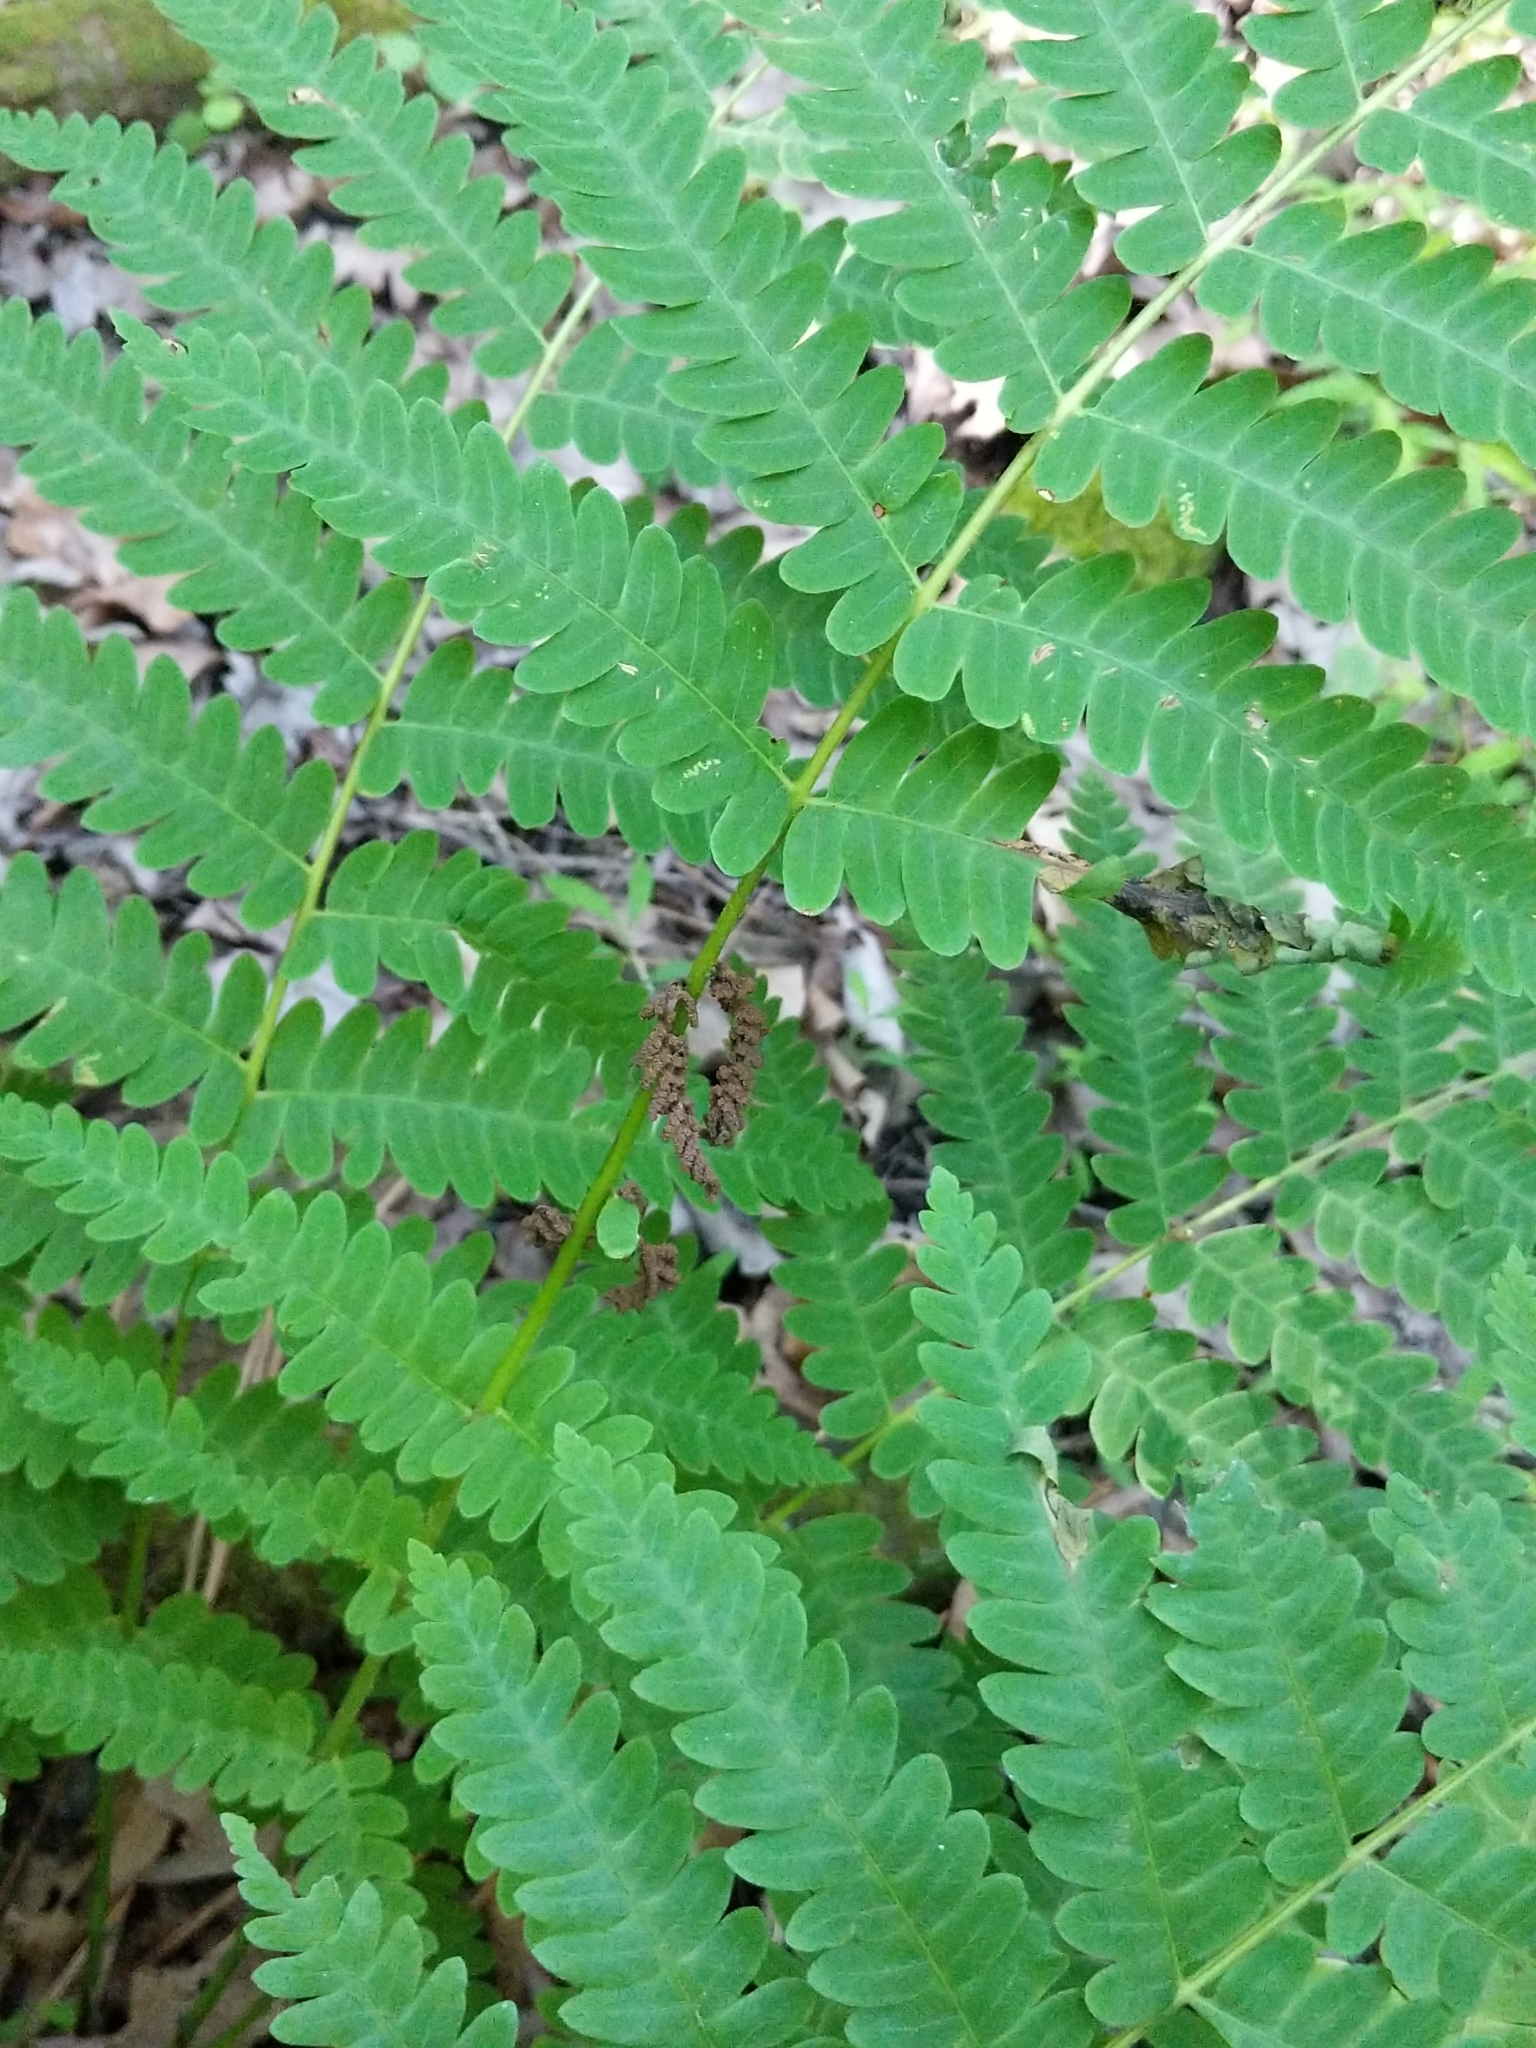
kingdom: Plantae
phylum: Tracheophyta
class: Polypodiopsida
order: Osmundales
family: Osmundaceae
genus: Claytosmunda
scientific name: Claytosmunda claytoniana
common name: Clayton's fern
